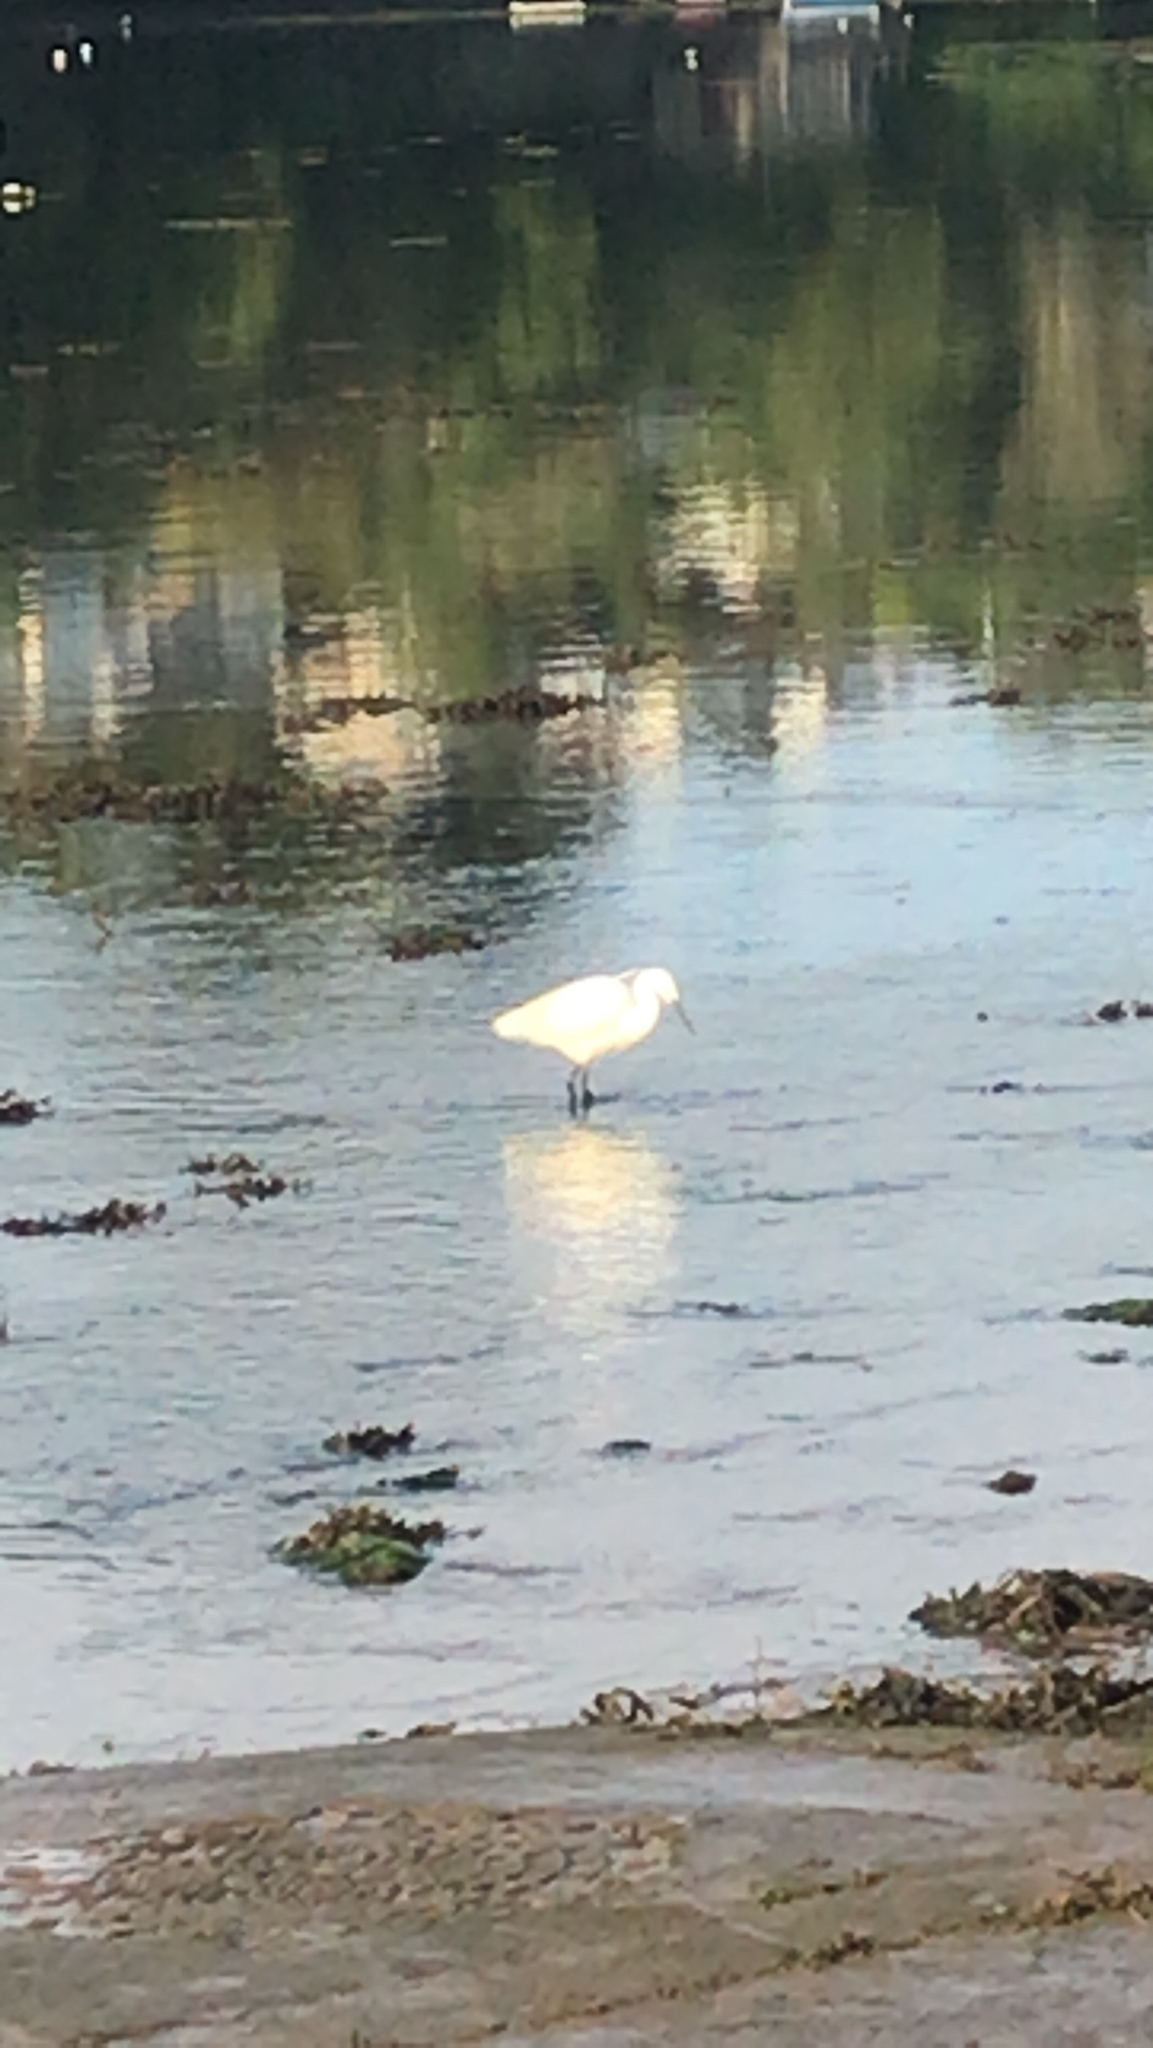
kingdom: Animalia
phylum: Chordata
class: Aves
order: Pelecaniformes
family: Ardeidae
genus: Egretta
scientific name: Egretta garzetta
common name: Little egret
